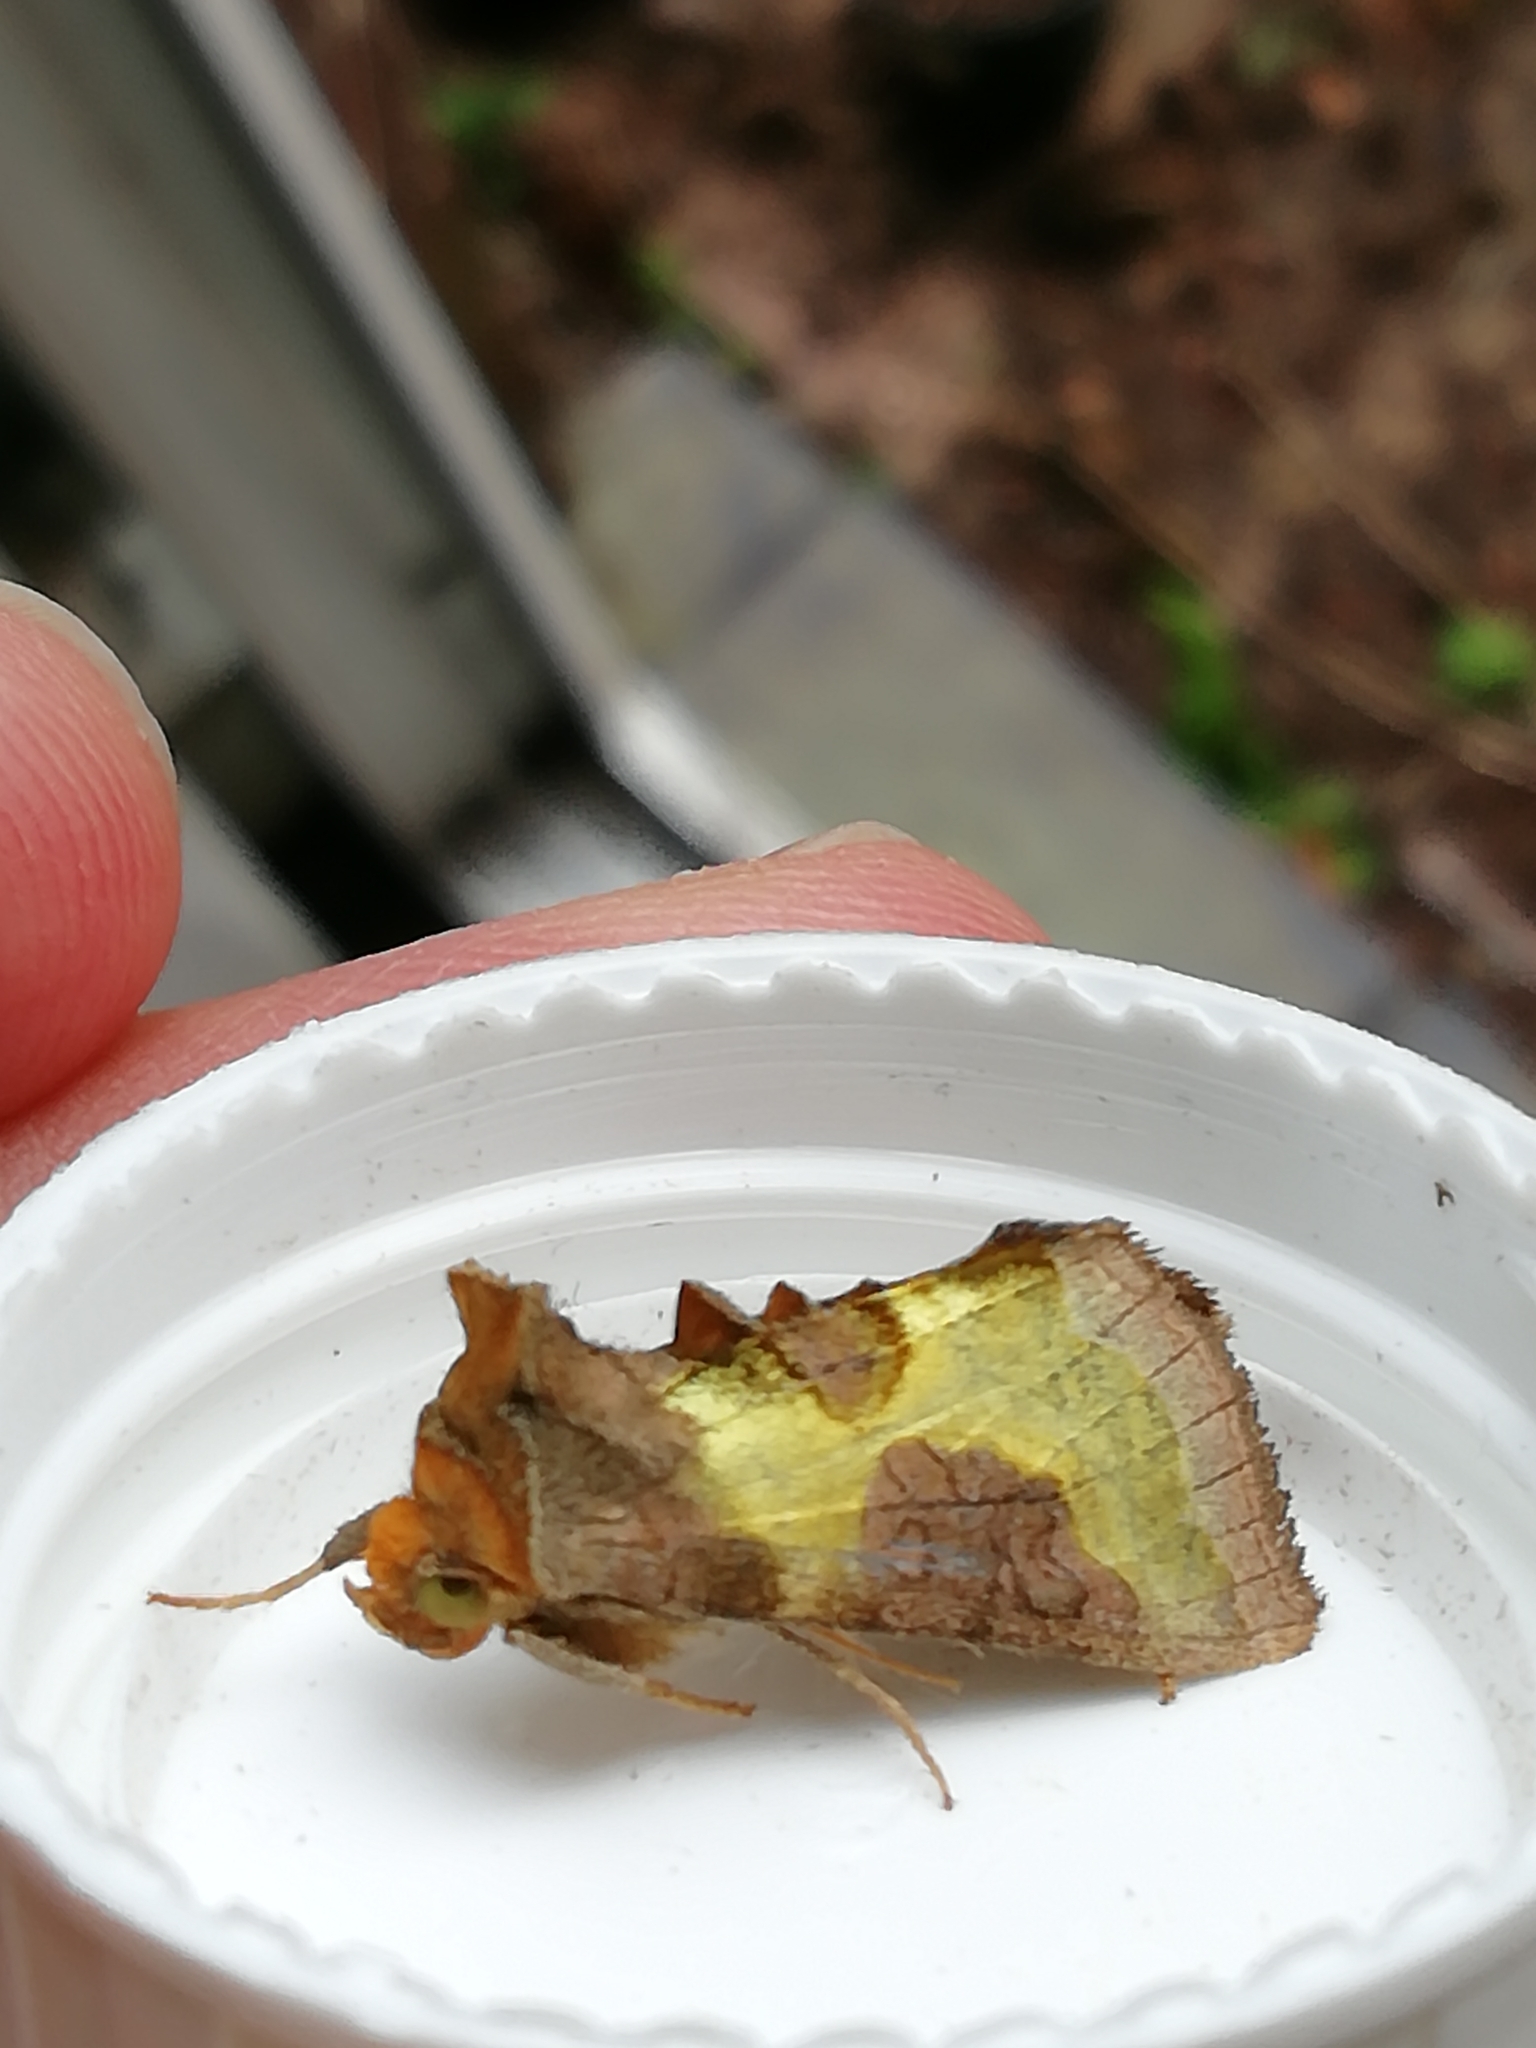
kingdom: Animalia
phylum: Arthropoda
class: Insecta
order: Lepidoptera
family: Noctuidae
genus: Diachrysia
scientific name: Diachrysia chrysitis
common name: Burnished brass
